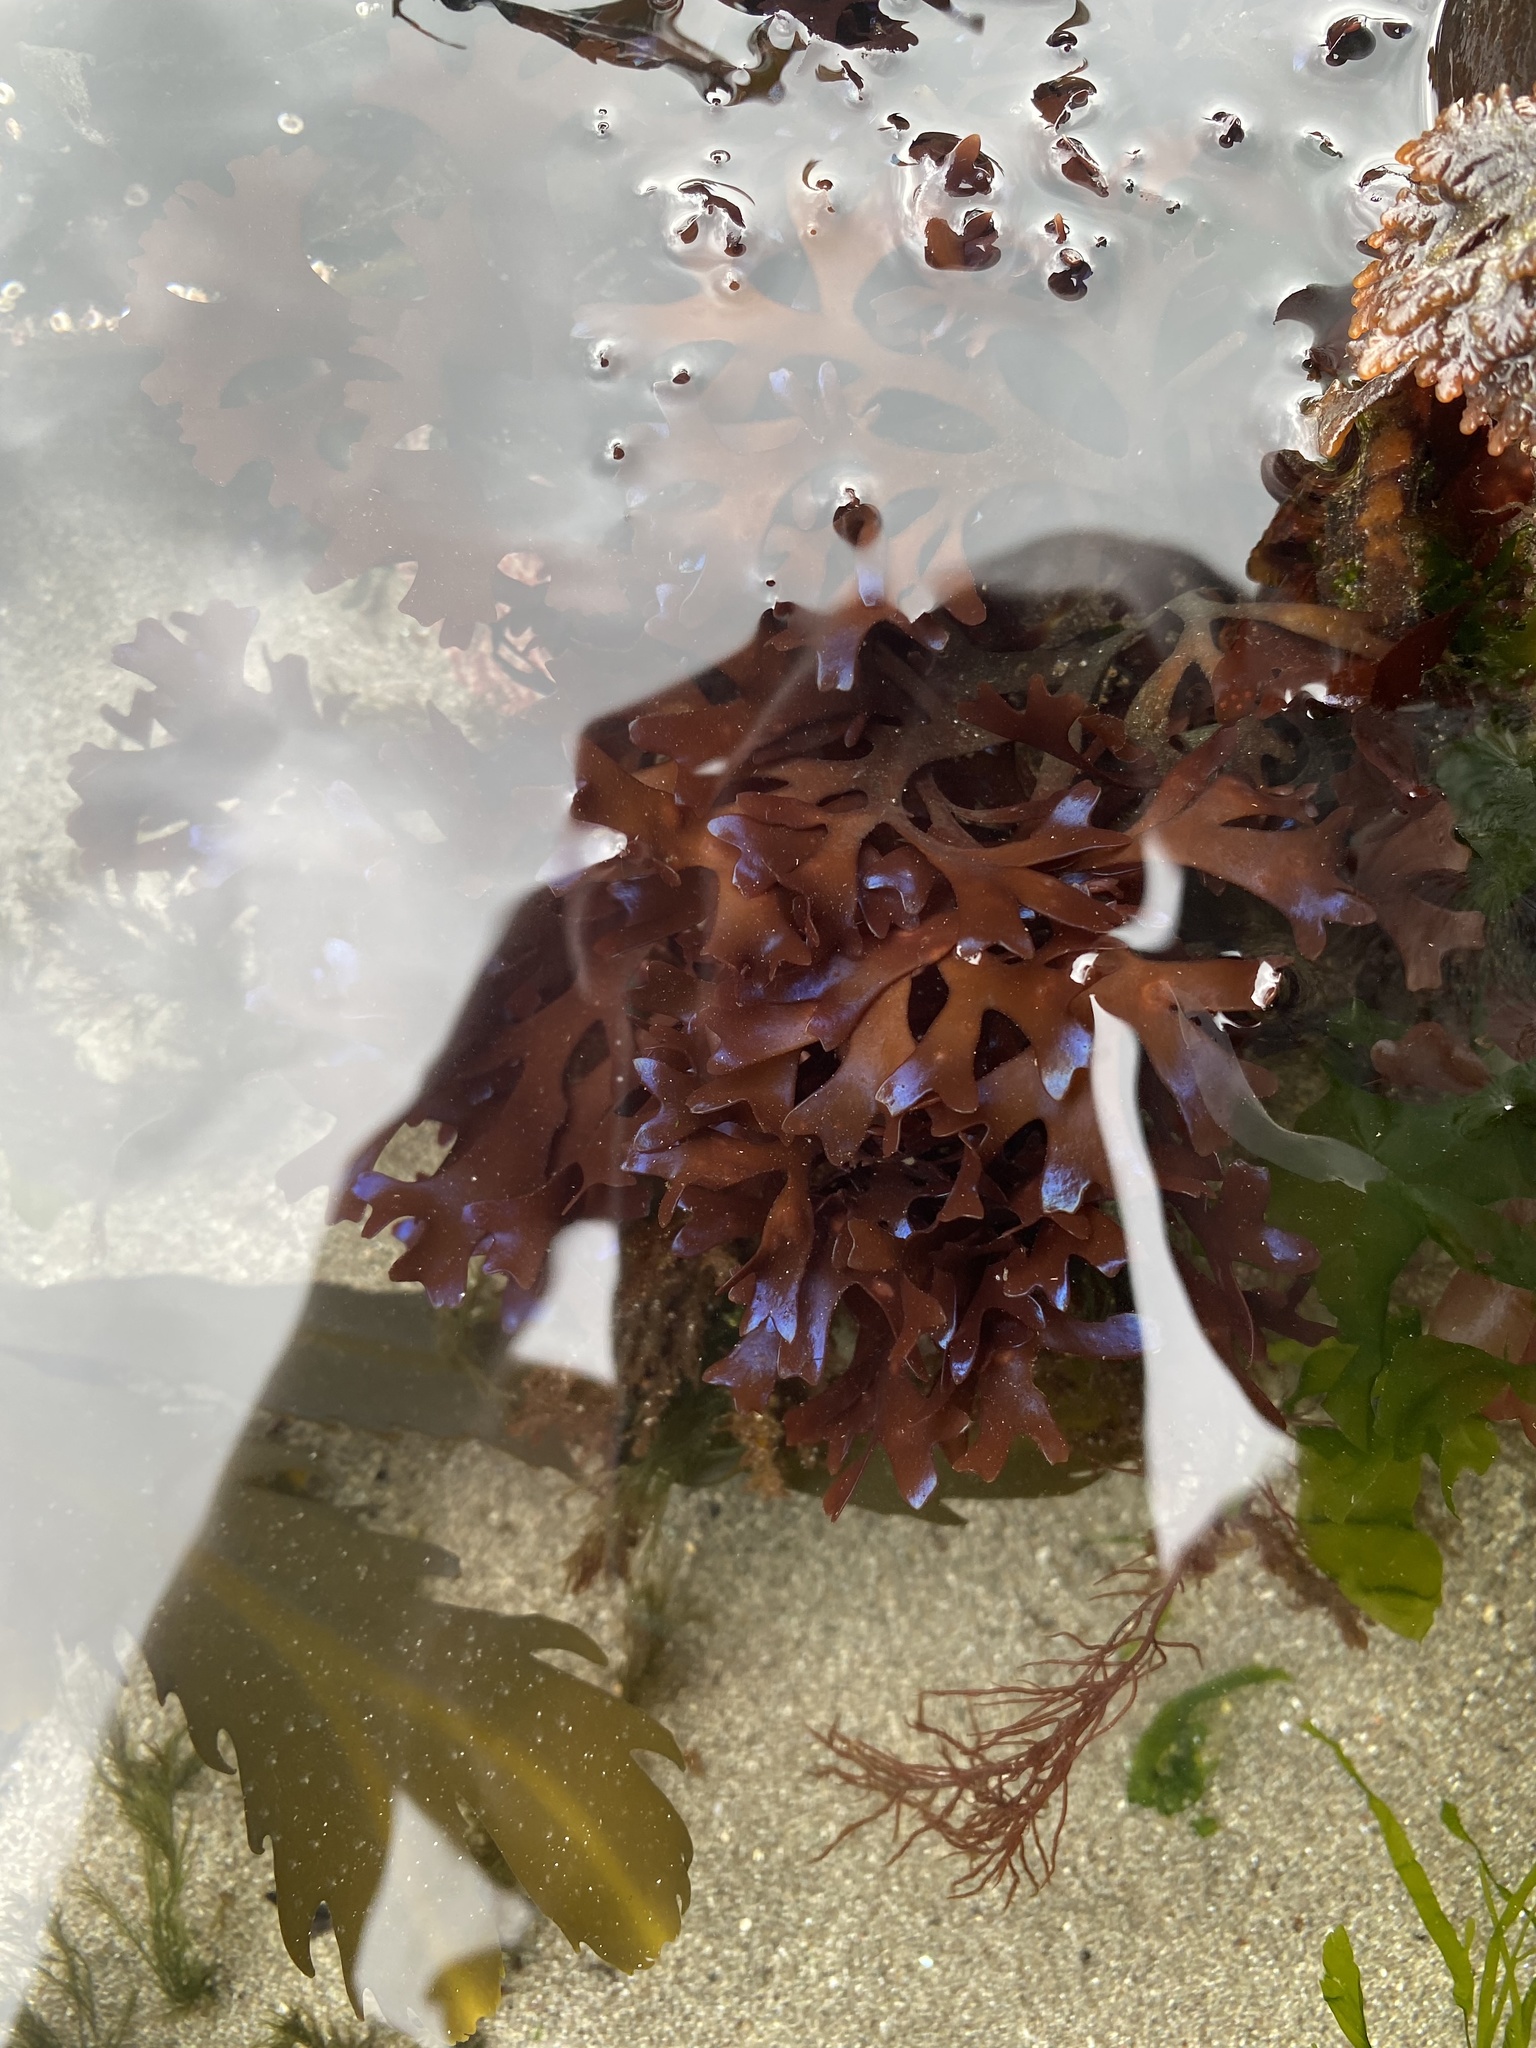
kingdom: Plantae
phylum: Rhodophyta
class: Florideophyceae
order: Gigartinales
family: Gigartinaceae
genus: Chondrus
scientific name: Chondrus crispus
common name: Carrageen
